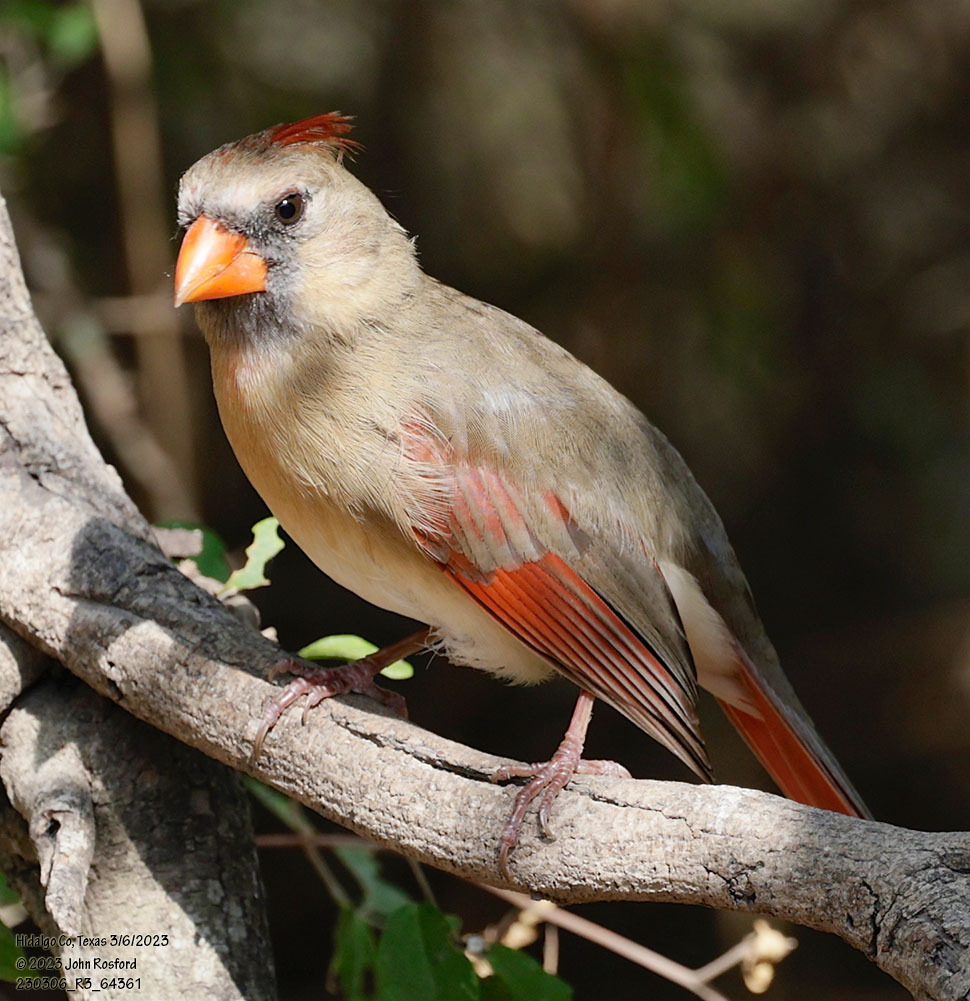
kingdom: Animalia
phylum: Chordata
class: Aves
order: Passeriformes
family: Cardinalidae
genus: Cardinalis
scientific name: Cardinalis cardinalis
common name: Northern cardinal
